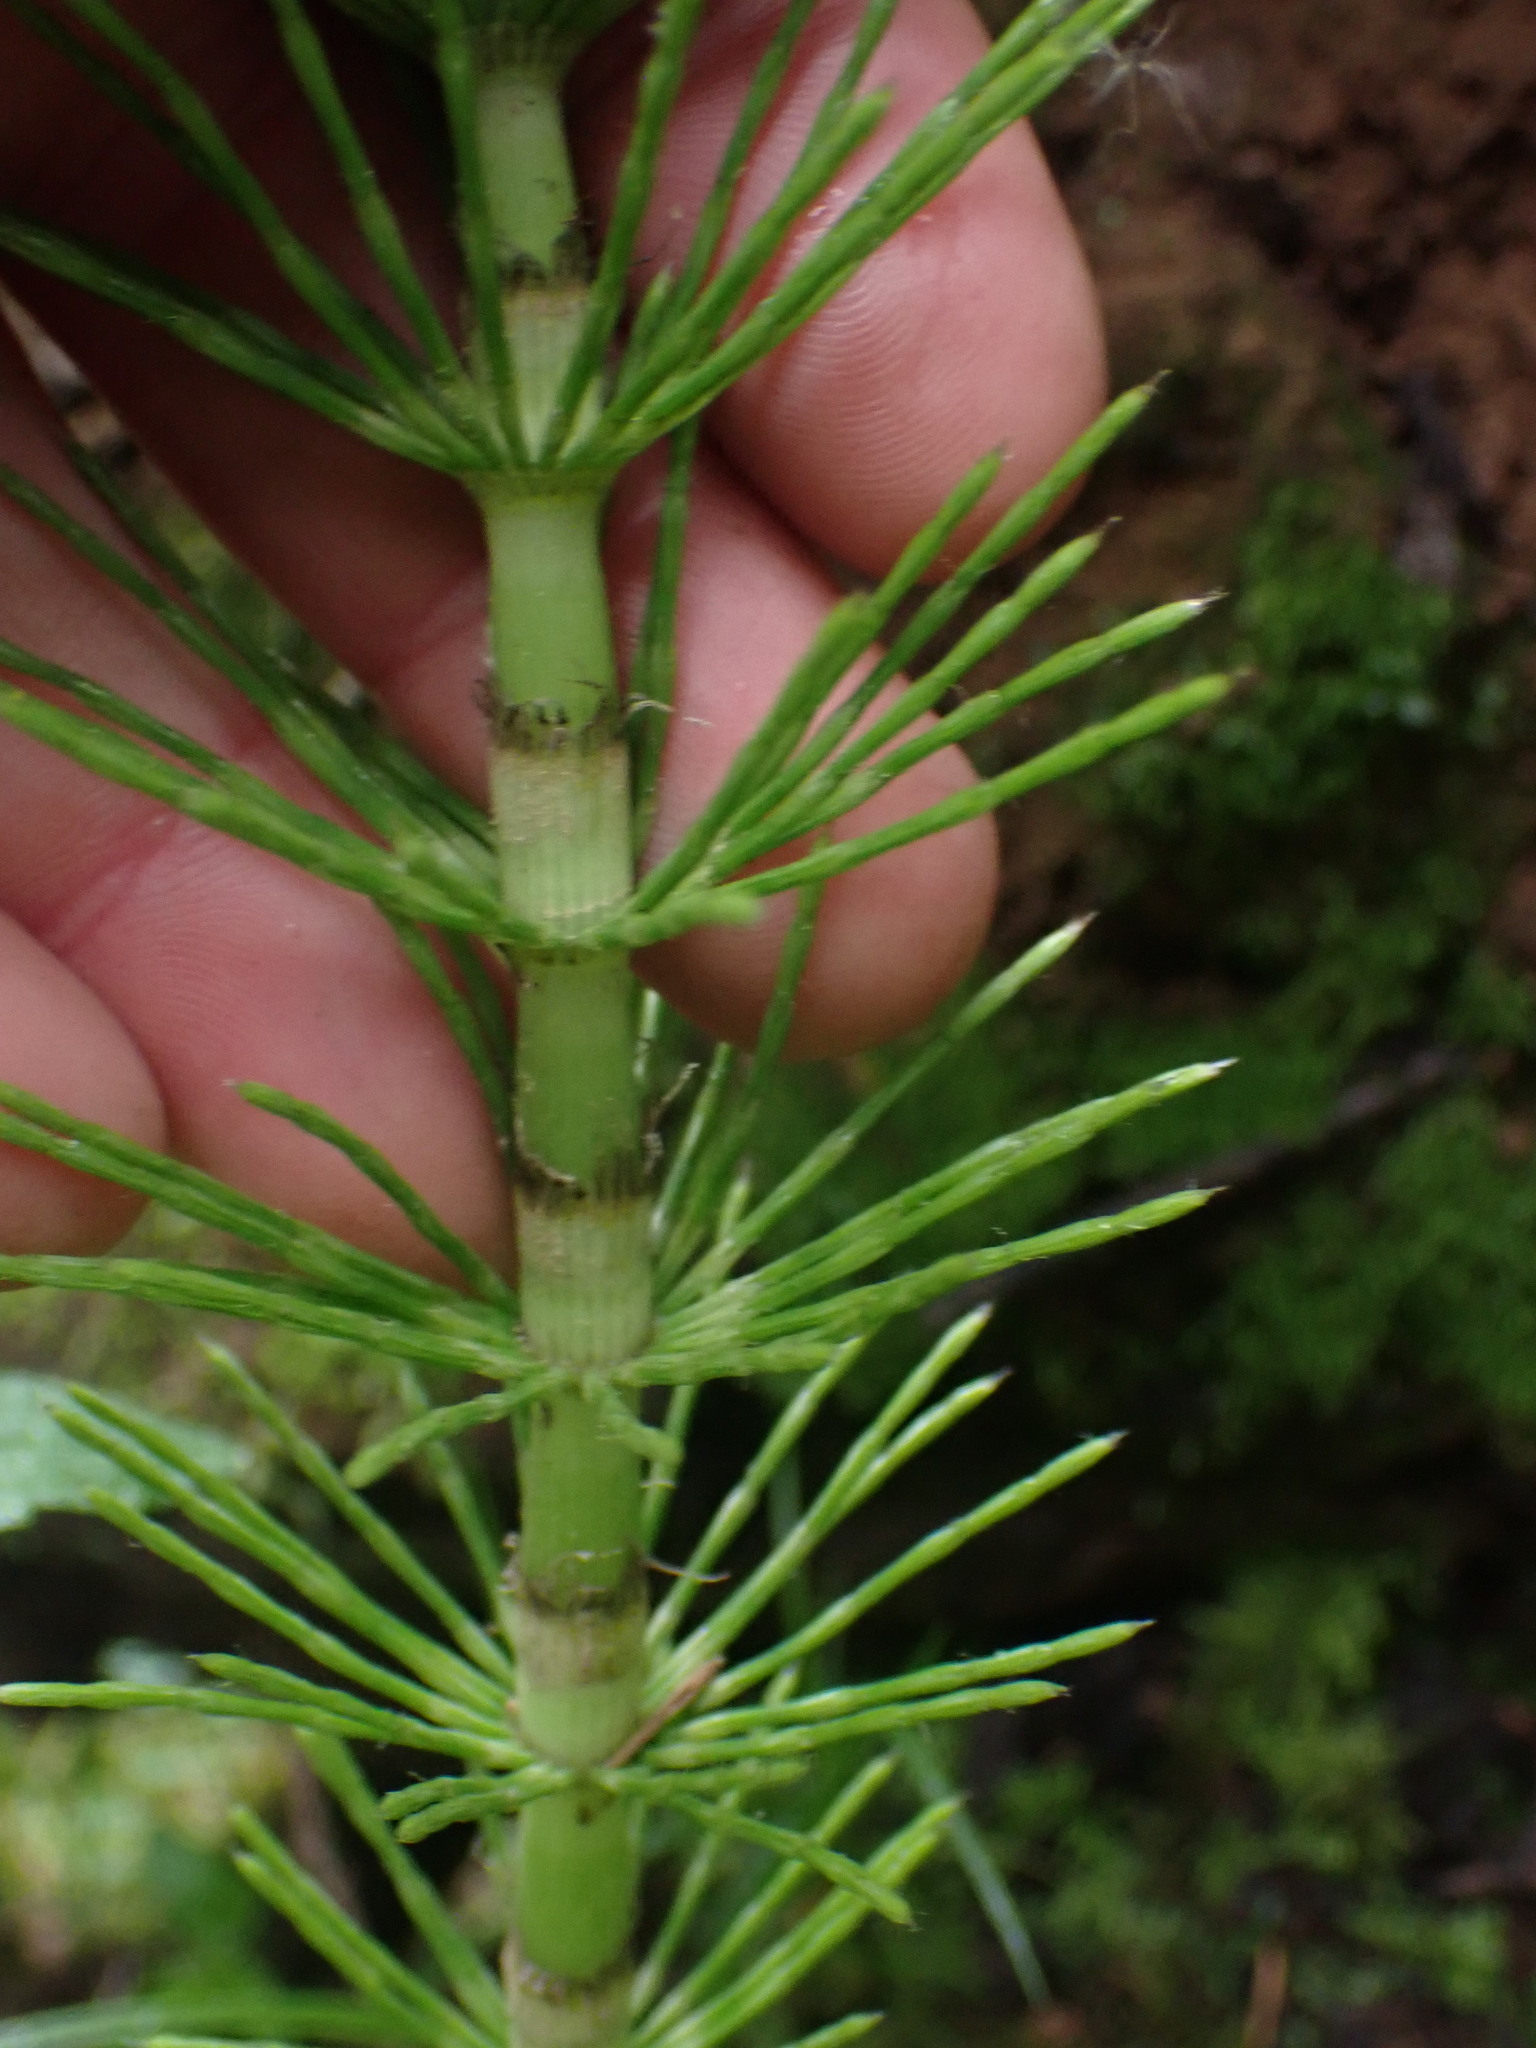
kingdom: Plantae
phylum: Tracheophyta
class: Polypodiopsida
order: Equisetales
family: Equisetaceae
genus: Equisetum
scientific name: Equisetum telmateia
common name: Great horsetail
